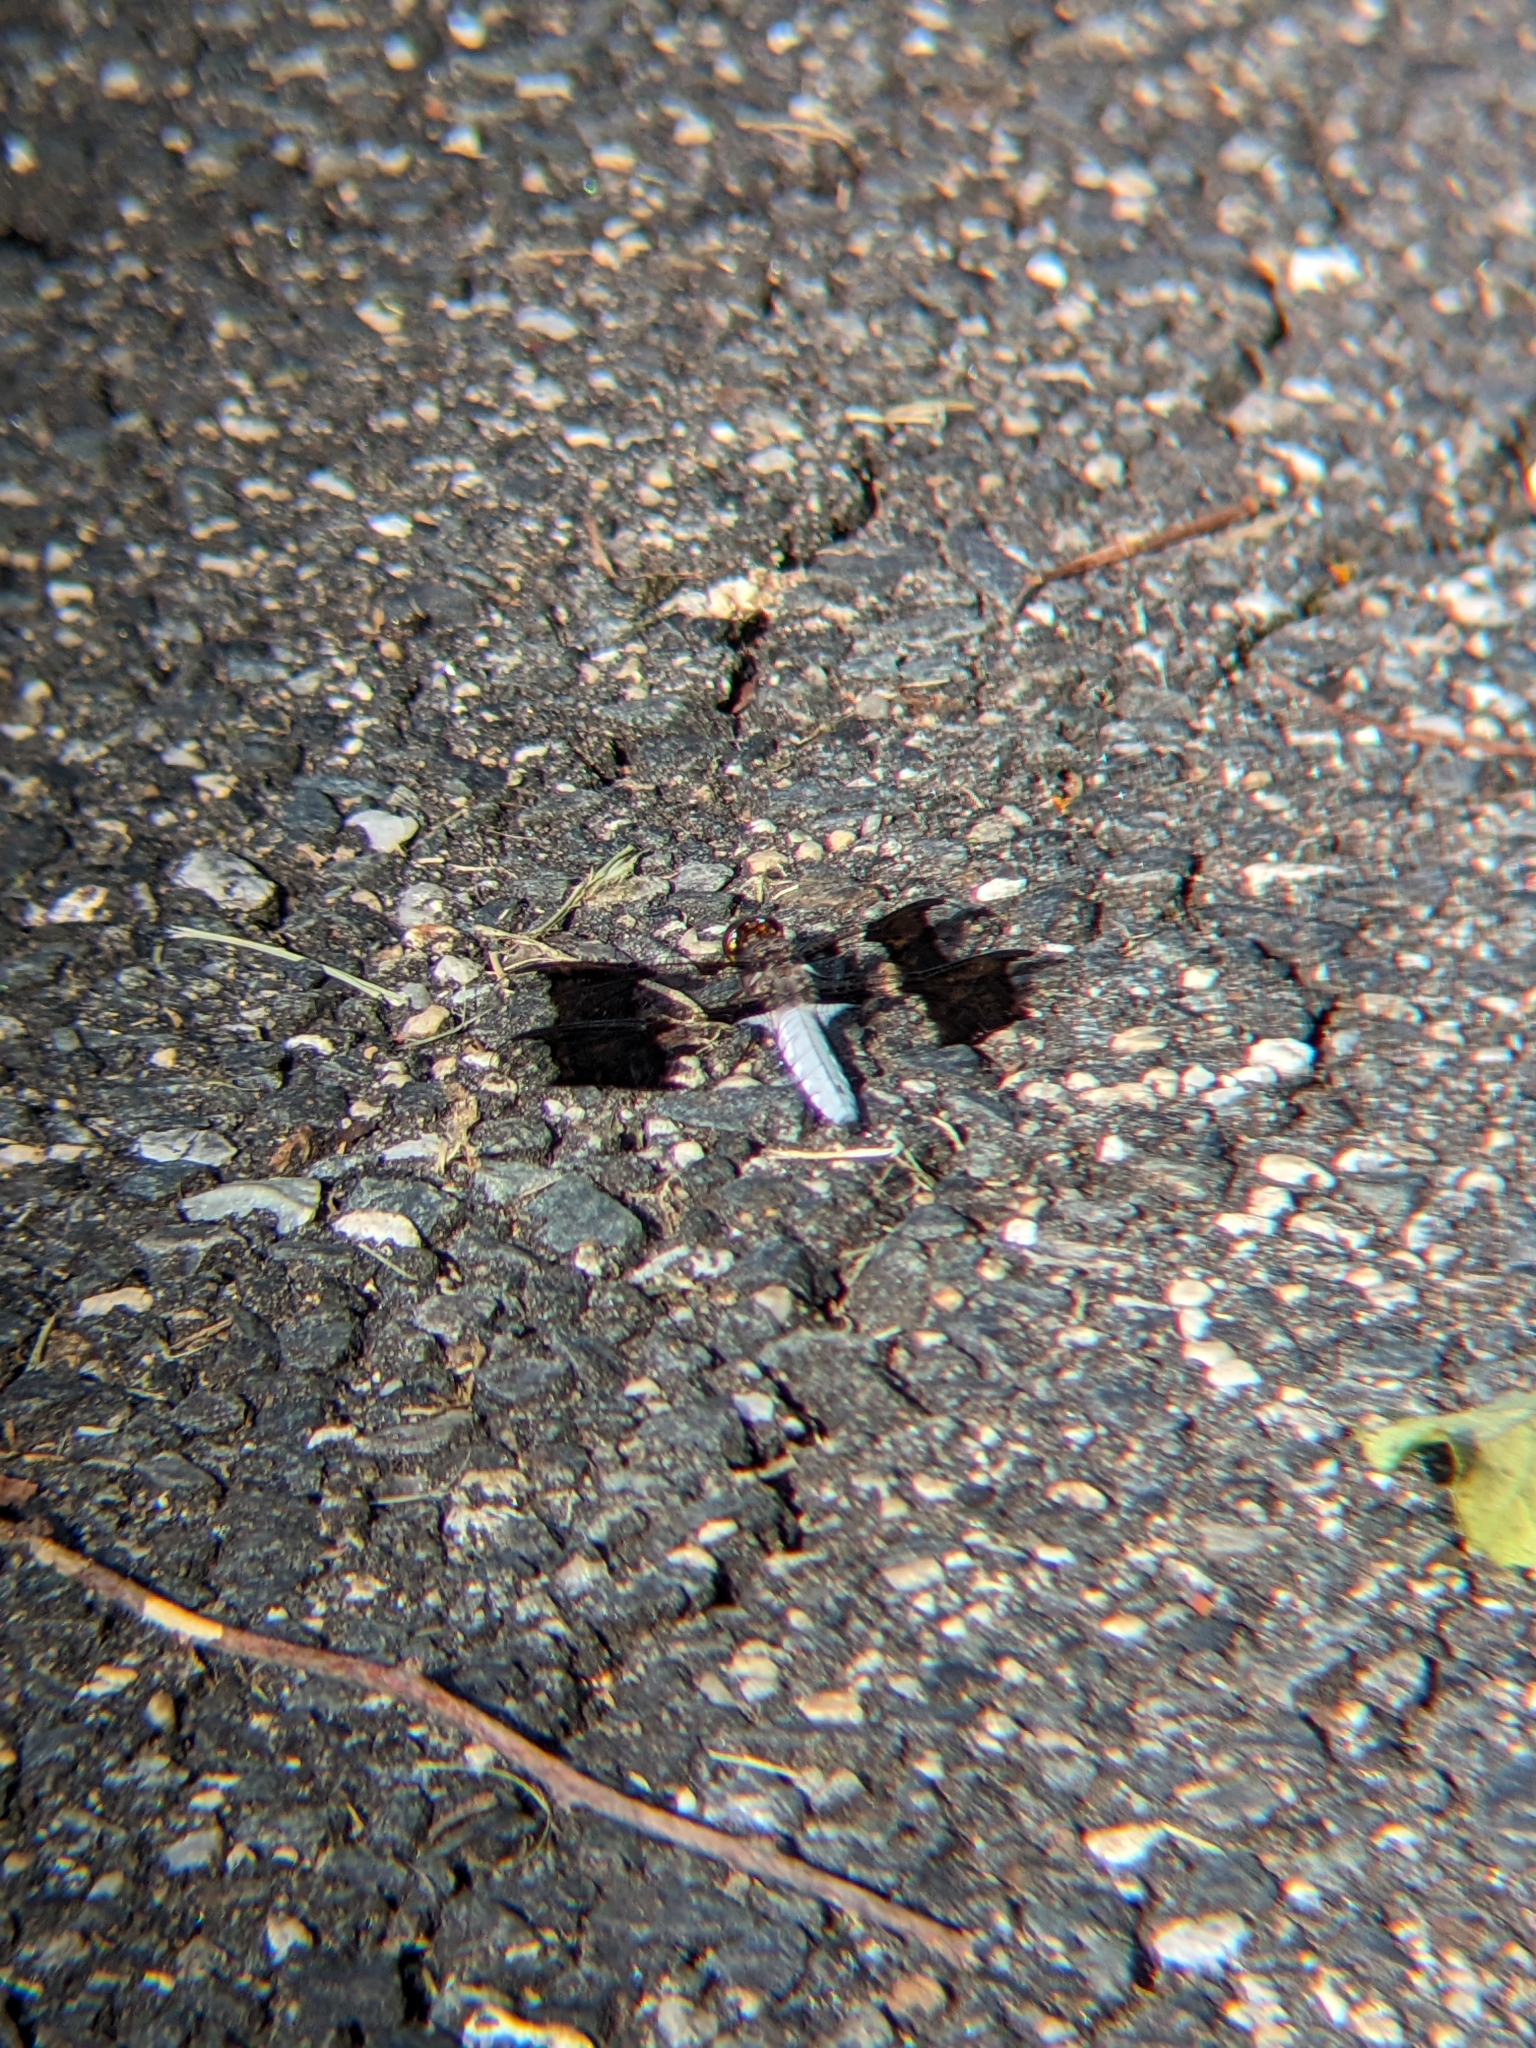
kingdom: Animalia
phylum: Arthropoda
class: Insecta
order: Odonata
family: Libellulidae
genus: Plathemis
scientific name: Plathemis lydia
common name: Common whitetail
